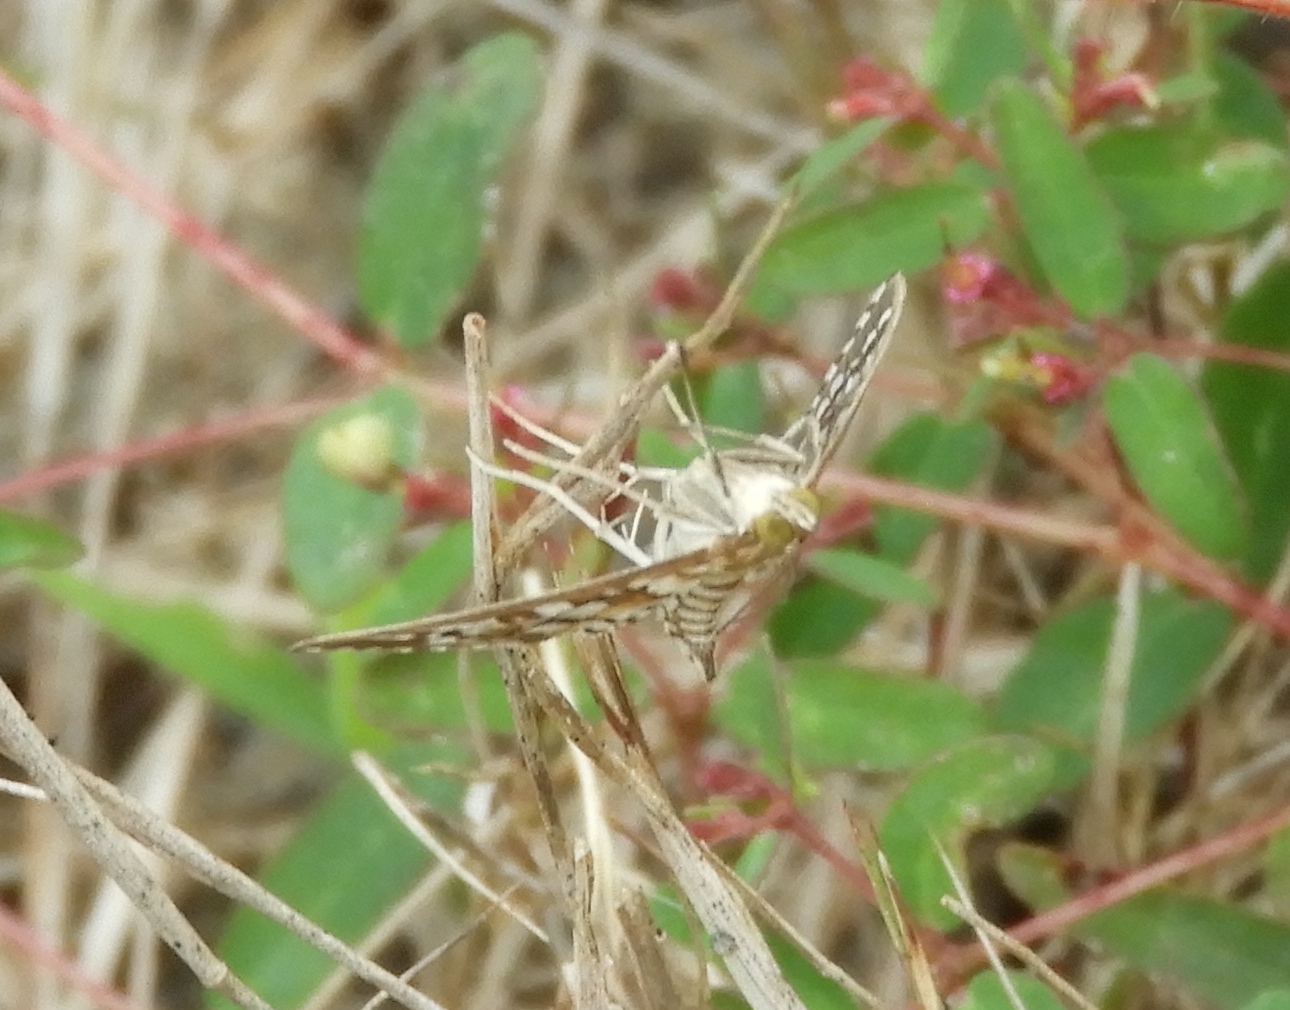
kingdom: Animalia
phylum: Arthropoda
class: Insecta
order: Lepidoptera
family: Crambidae
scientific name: Crambidae
